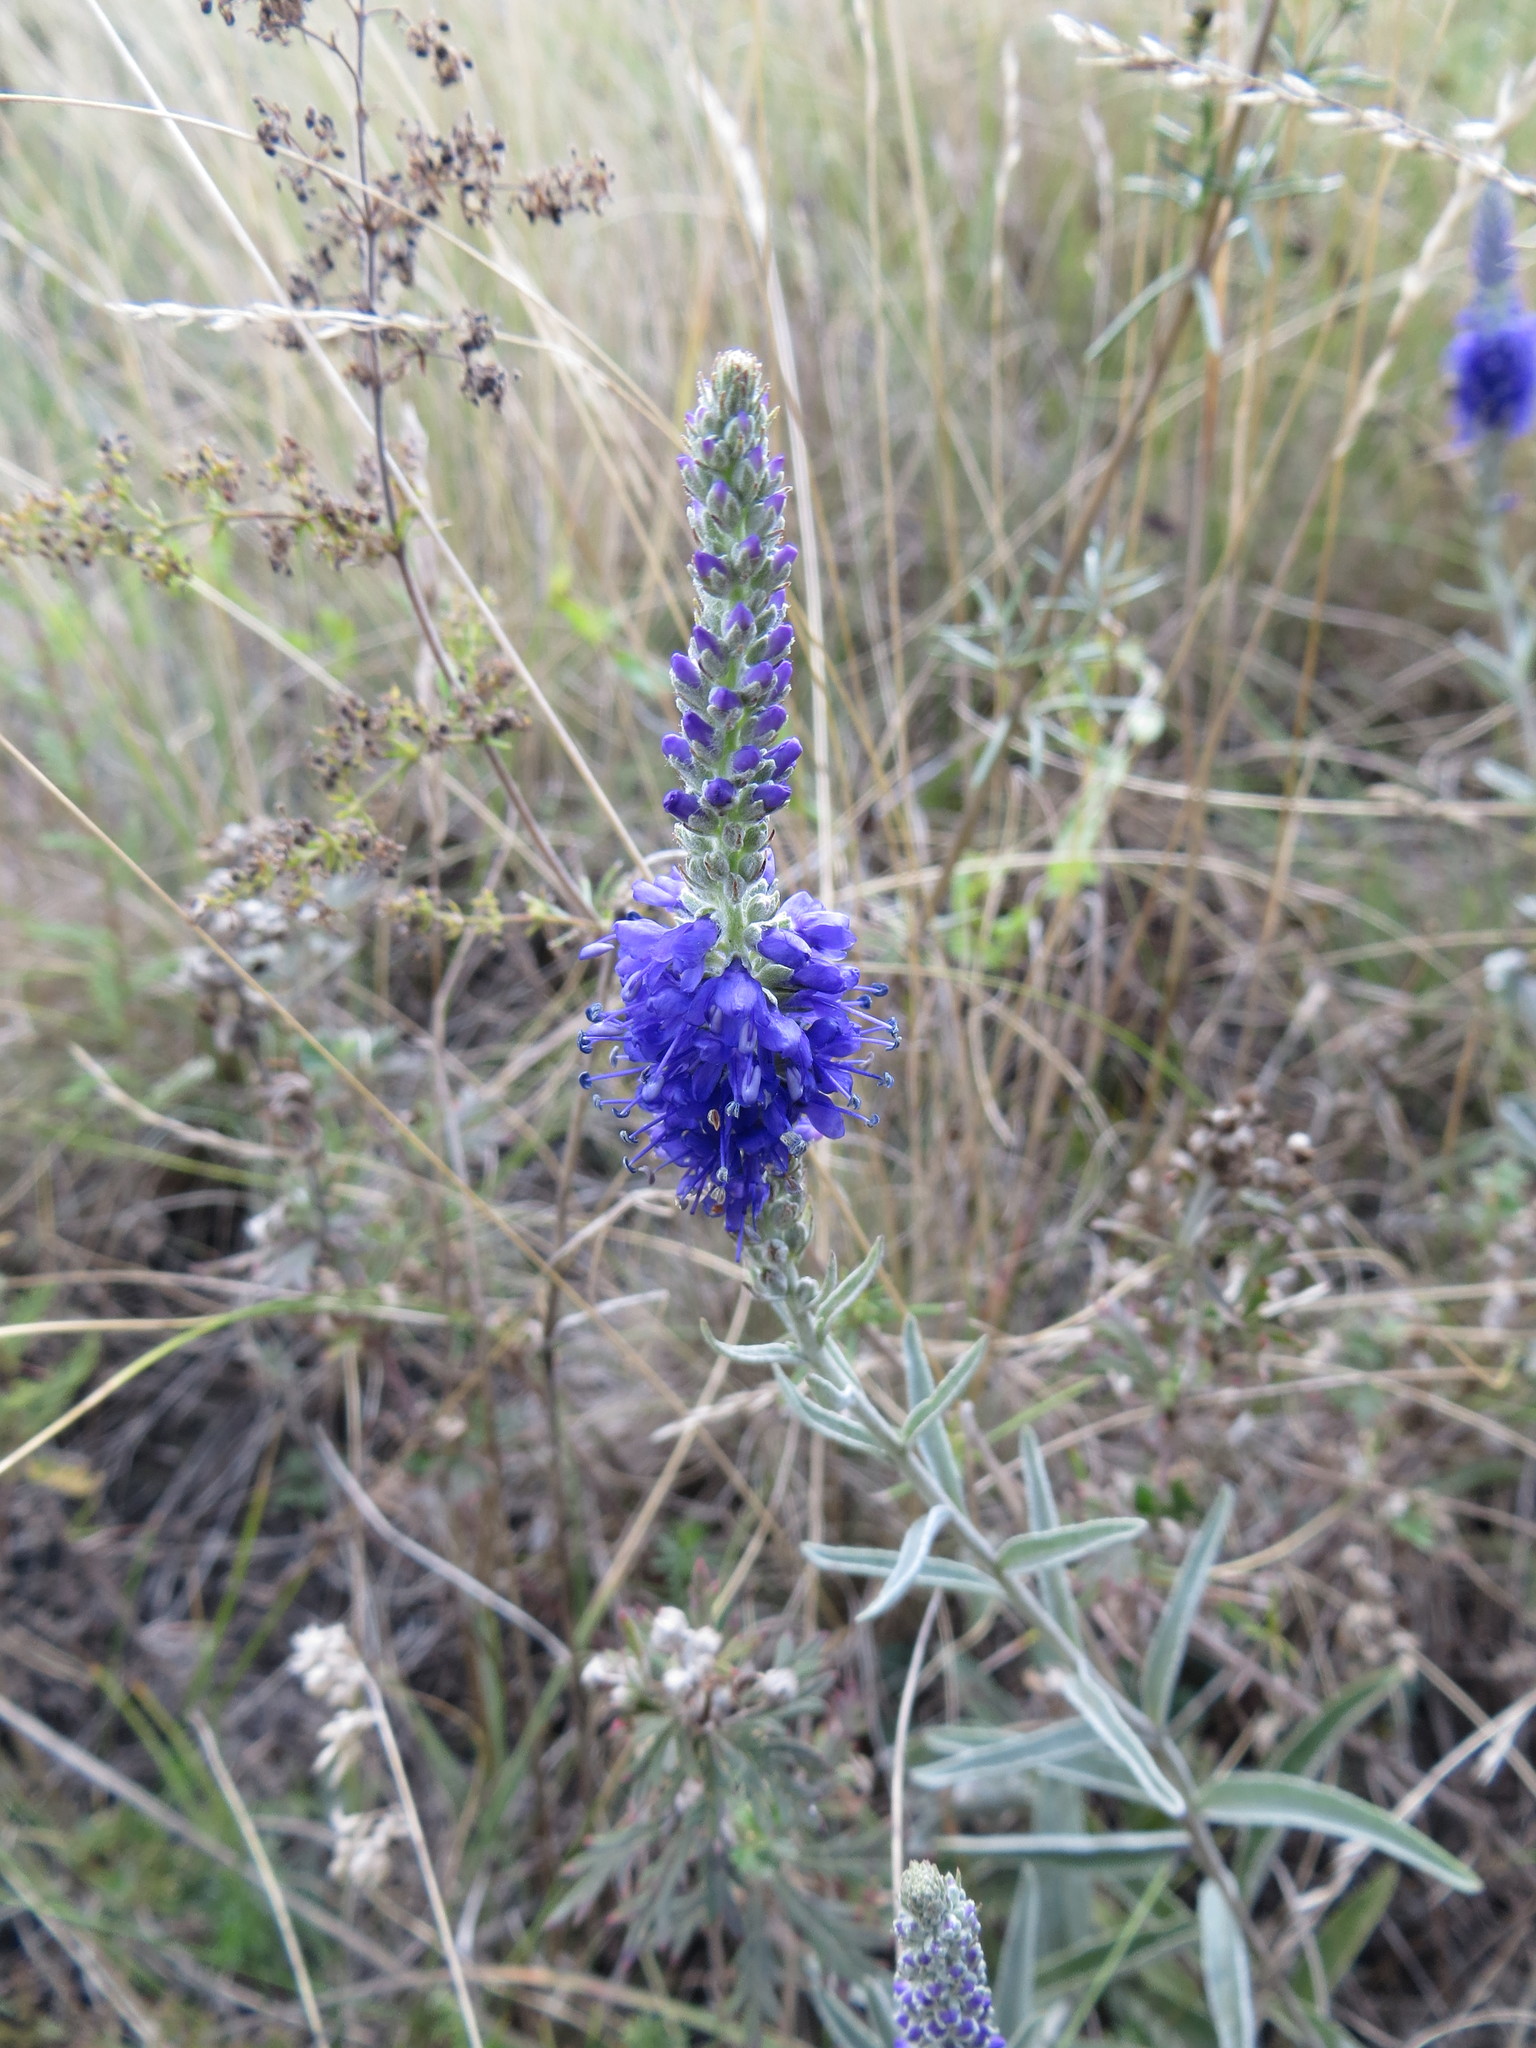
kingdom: Plantae
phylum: Tracheophyta
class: Magnoliopsida
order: Lamiales
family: Plantaginaceae
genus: Veronica
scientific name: Veronica incana
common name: Silver speedwell
